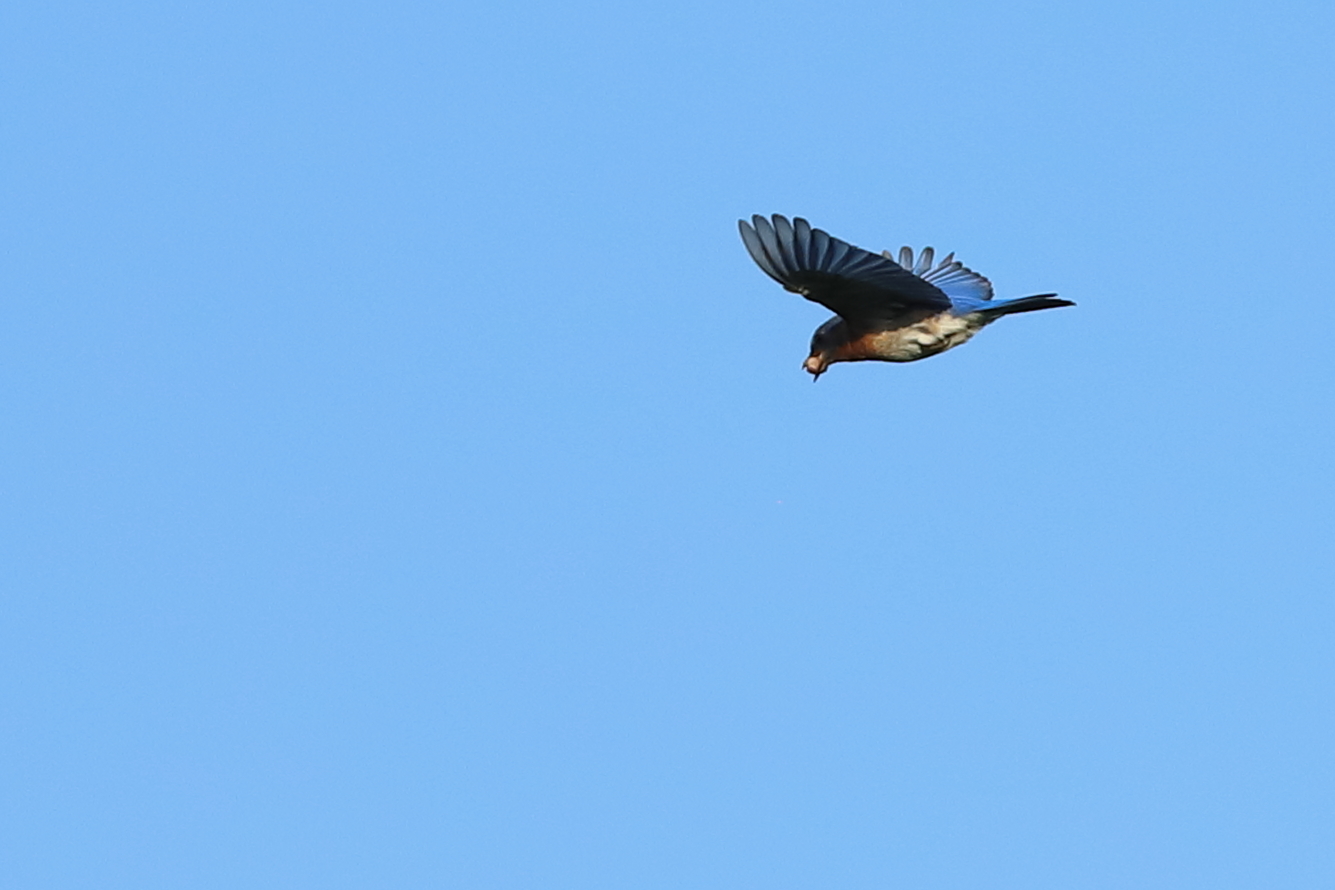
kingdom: Animalia
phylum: Chordata
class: Aves
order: Passeriformes
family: Turdidae
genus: Sialia
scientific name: Sialia sialis
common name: Eastern bluebird
